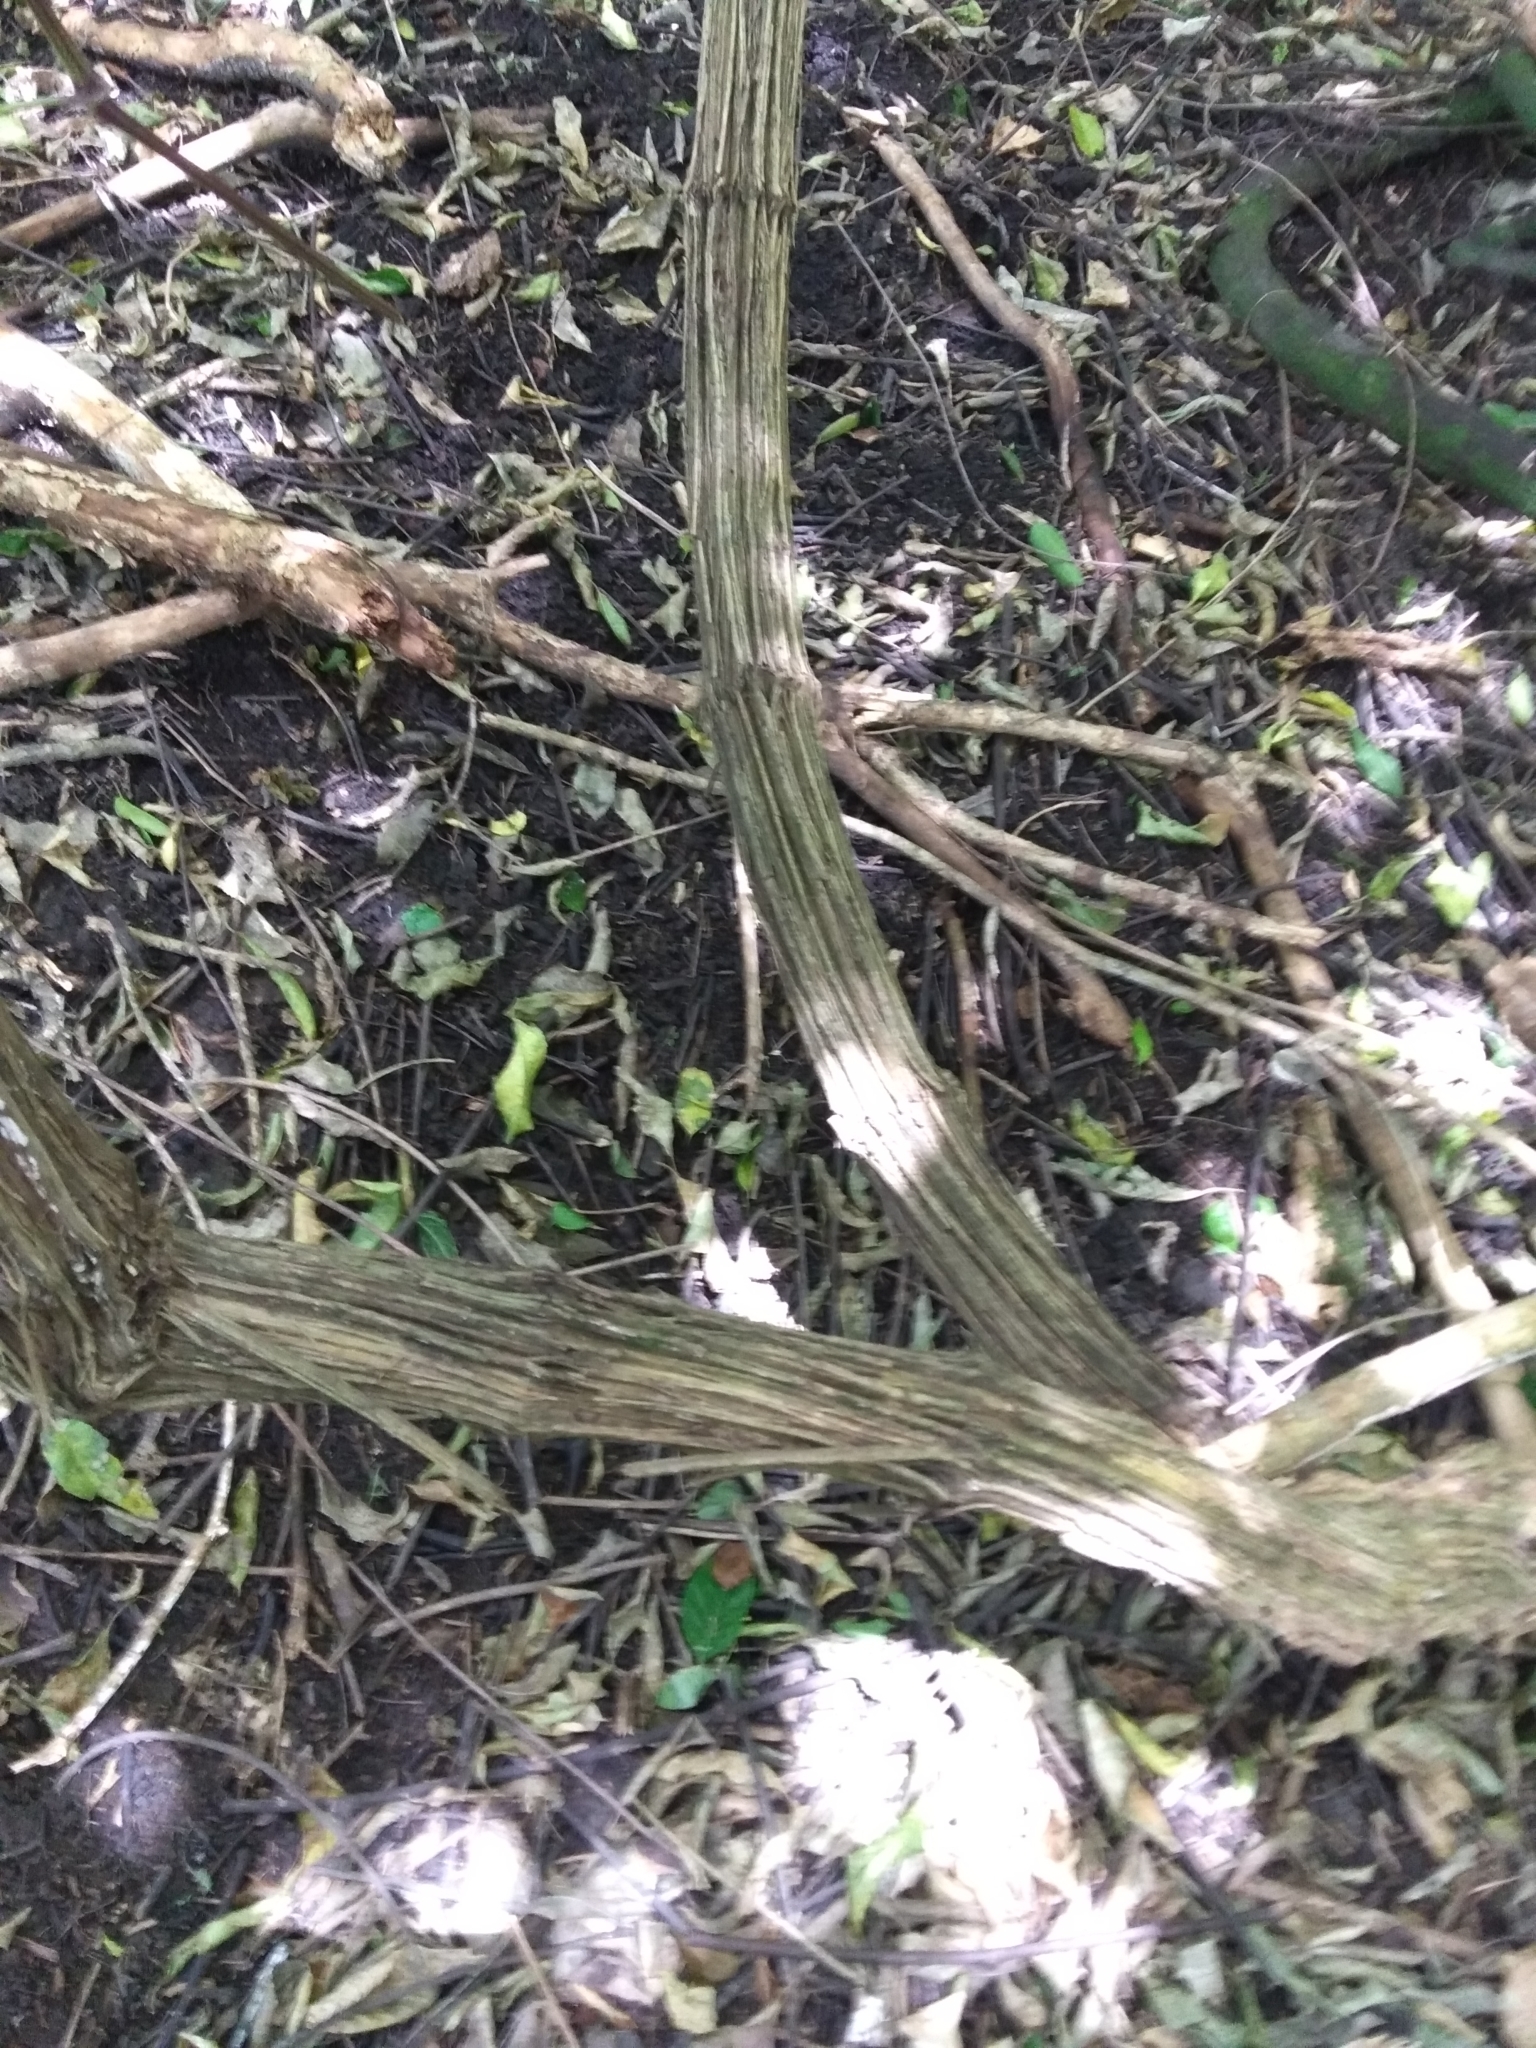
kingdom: Plantae
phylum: Tracheophyta
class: Magnoliopsida
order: Ranunculales
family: Ranunculaceae
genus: Clematis
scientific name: Clematis vitalba
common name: Evergreen clematis
